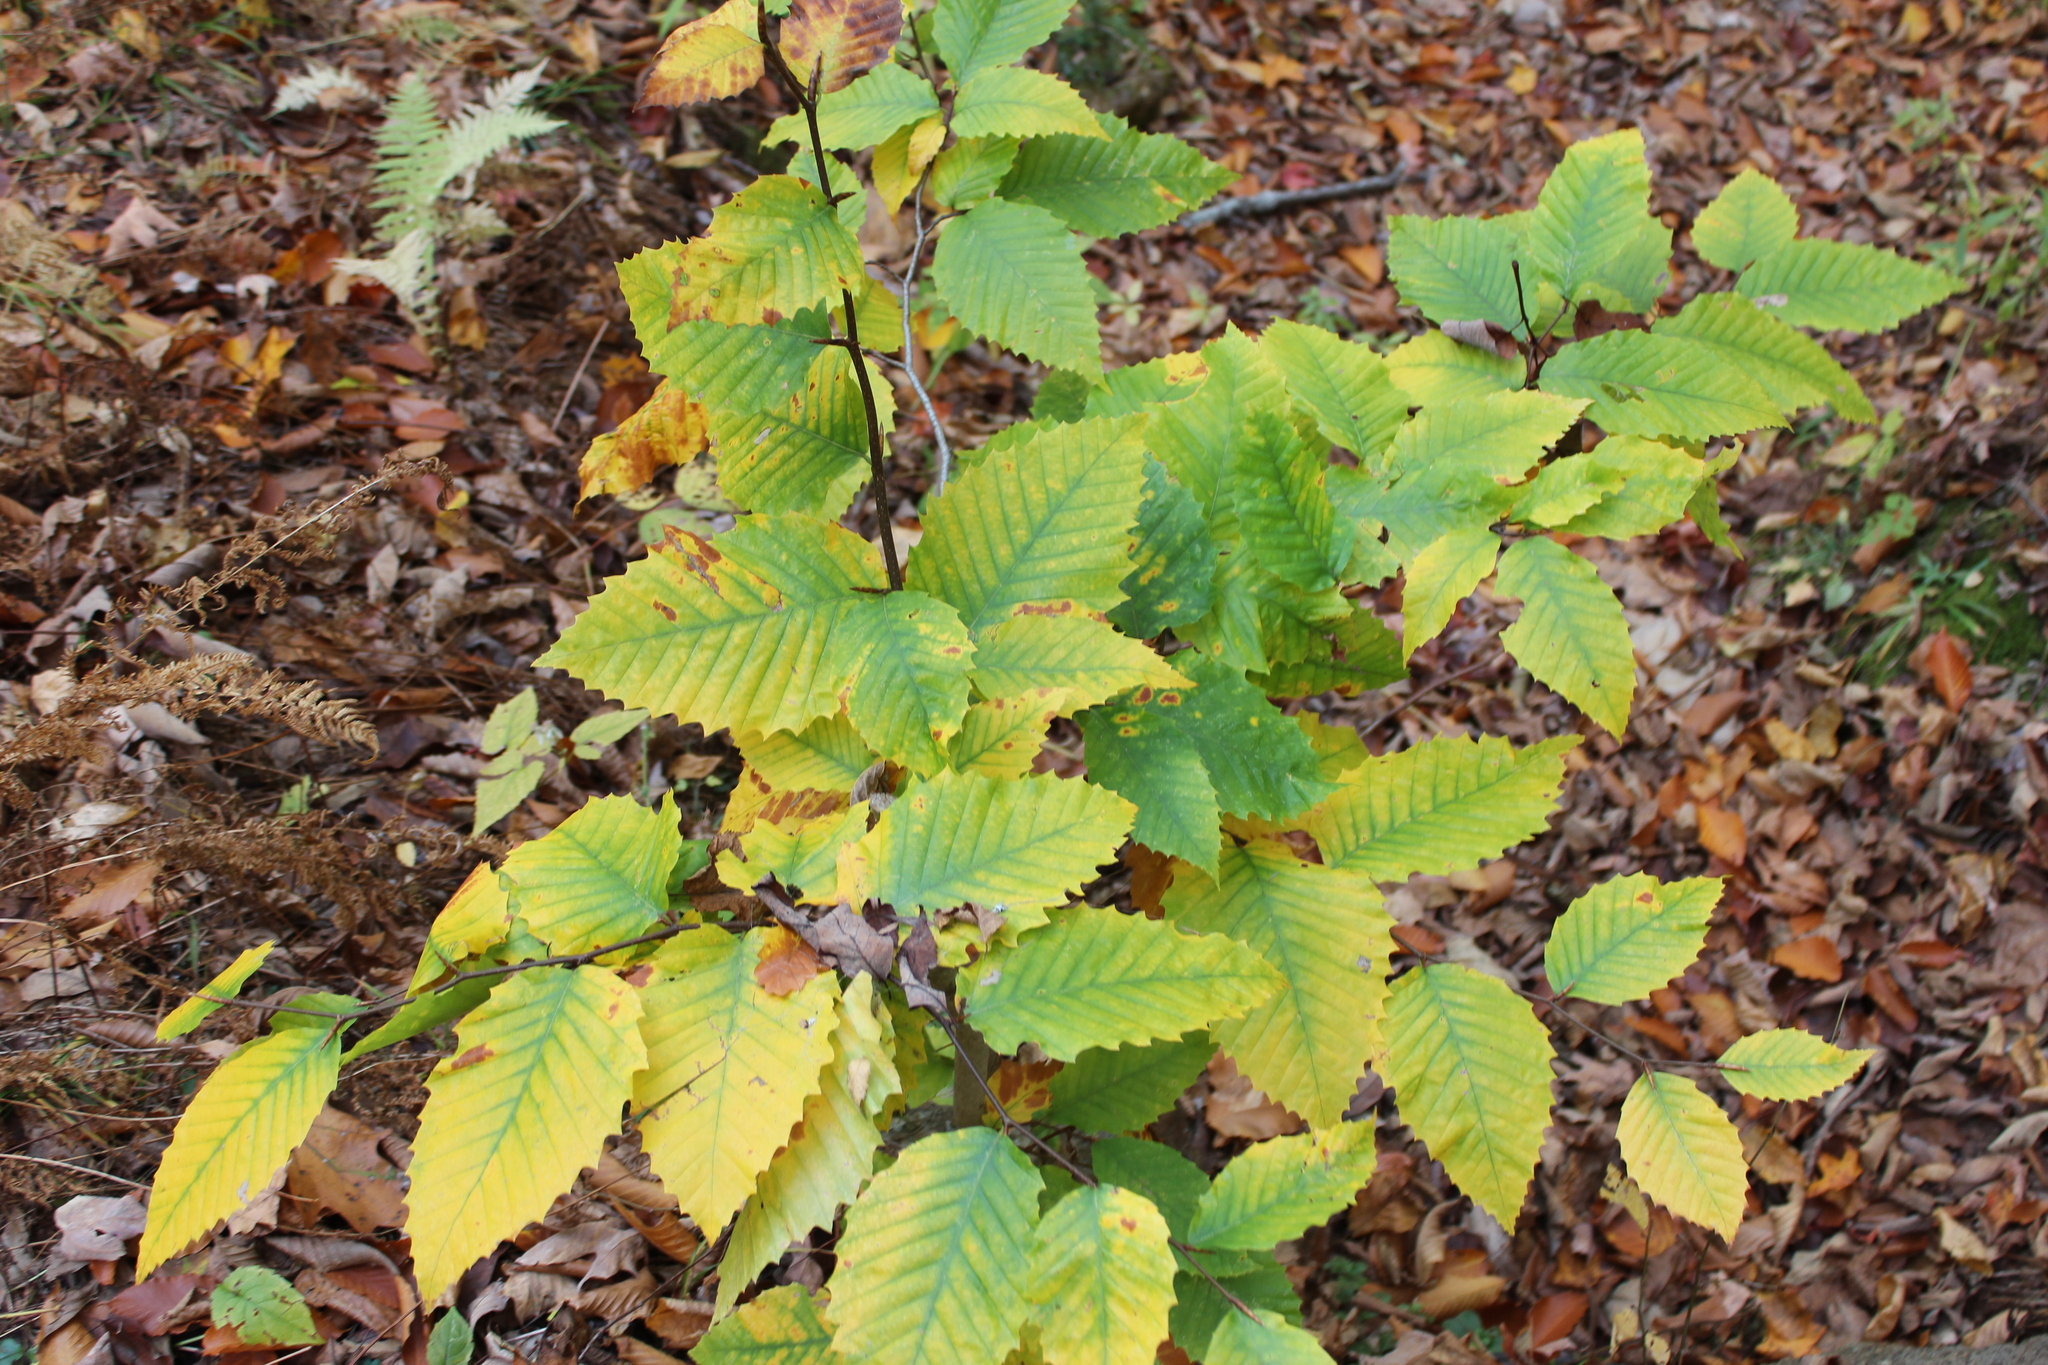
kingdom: Plantae
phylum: Tracheophyta
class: Magnoliopsida
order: Fagales
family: Fagaceae
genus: Fagus
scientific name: Fagus grandifolia
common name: American beech
